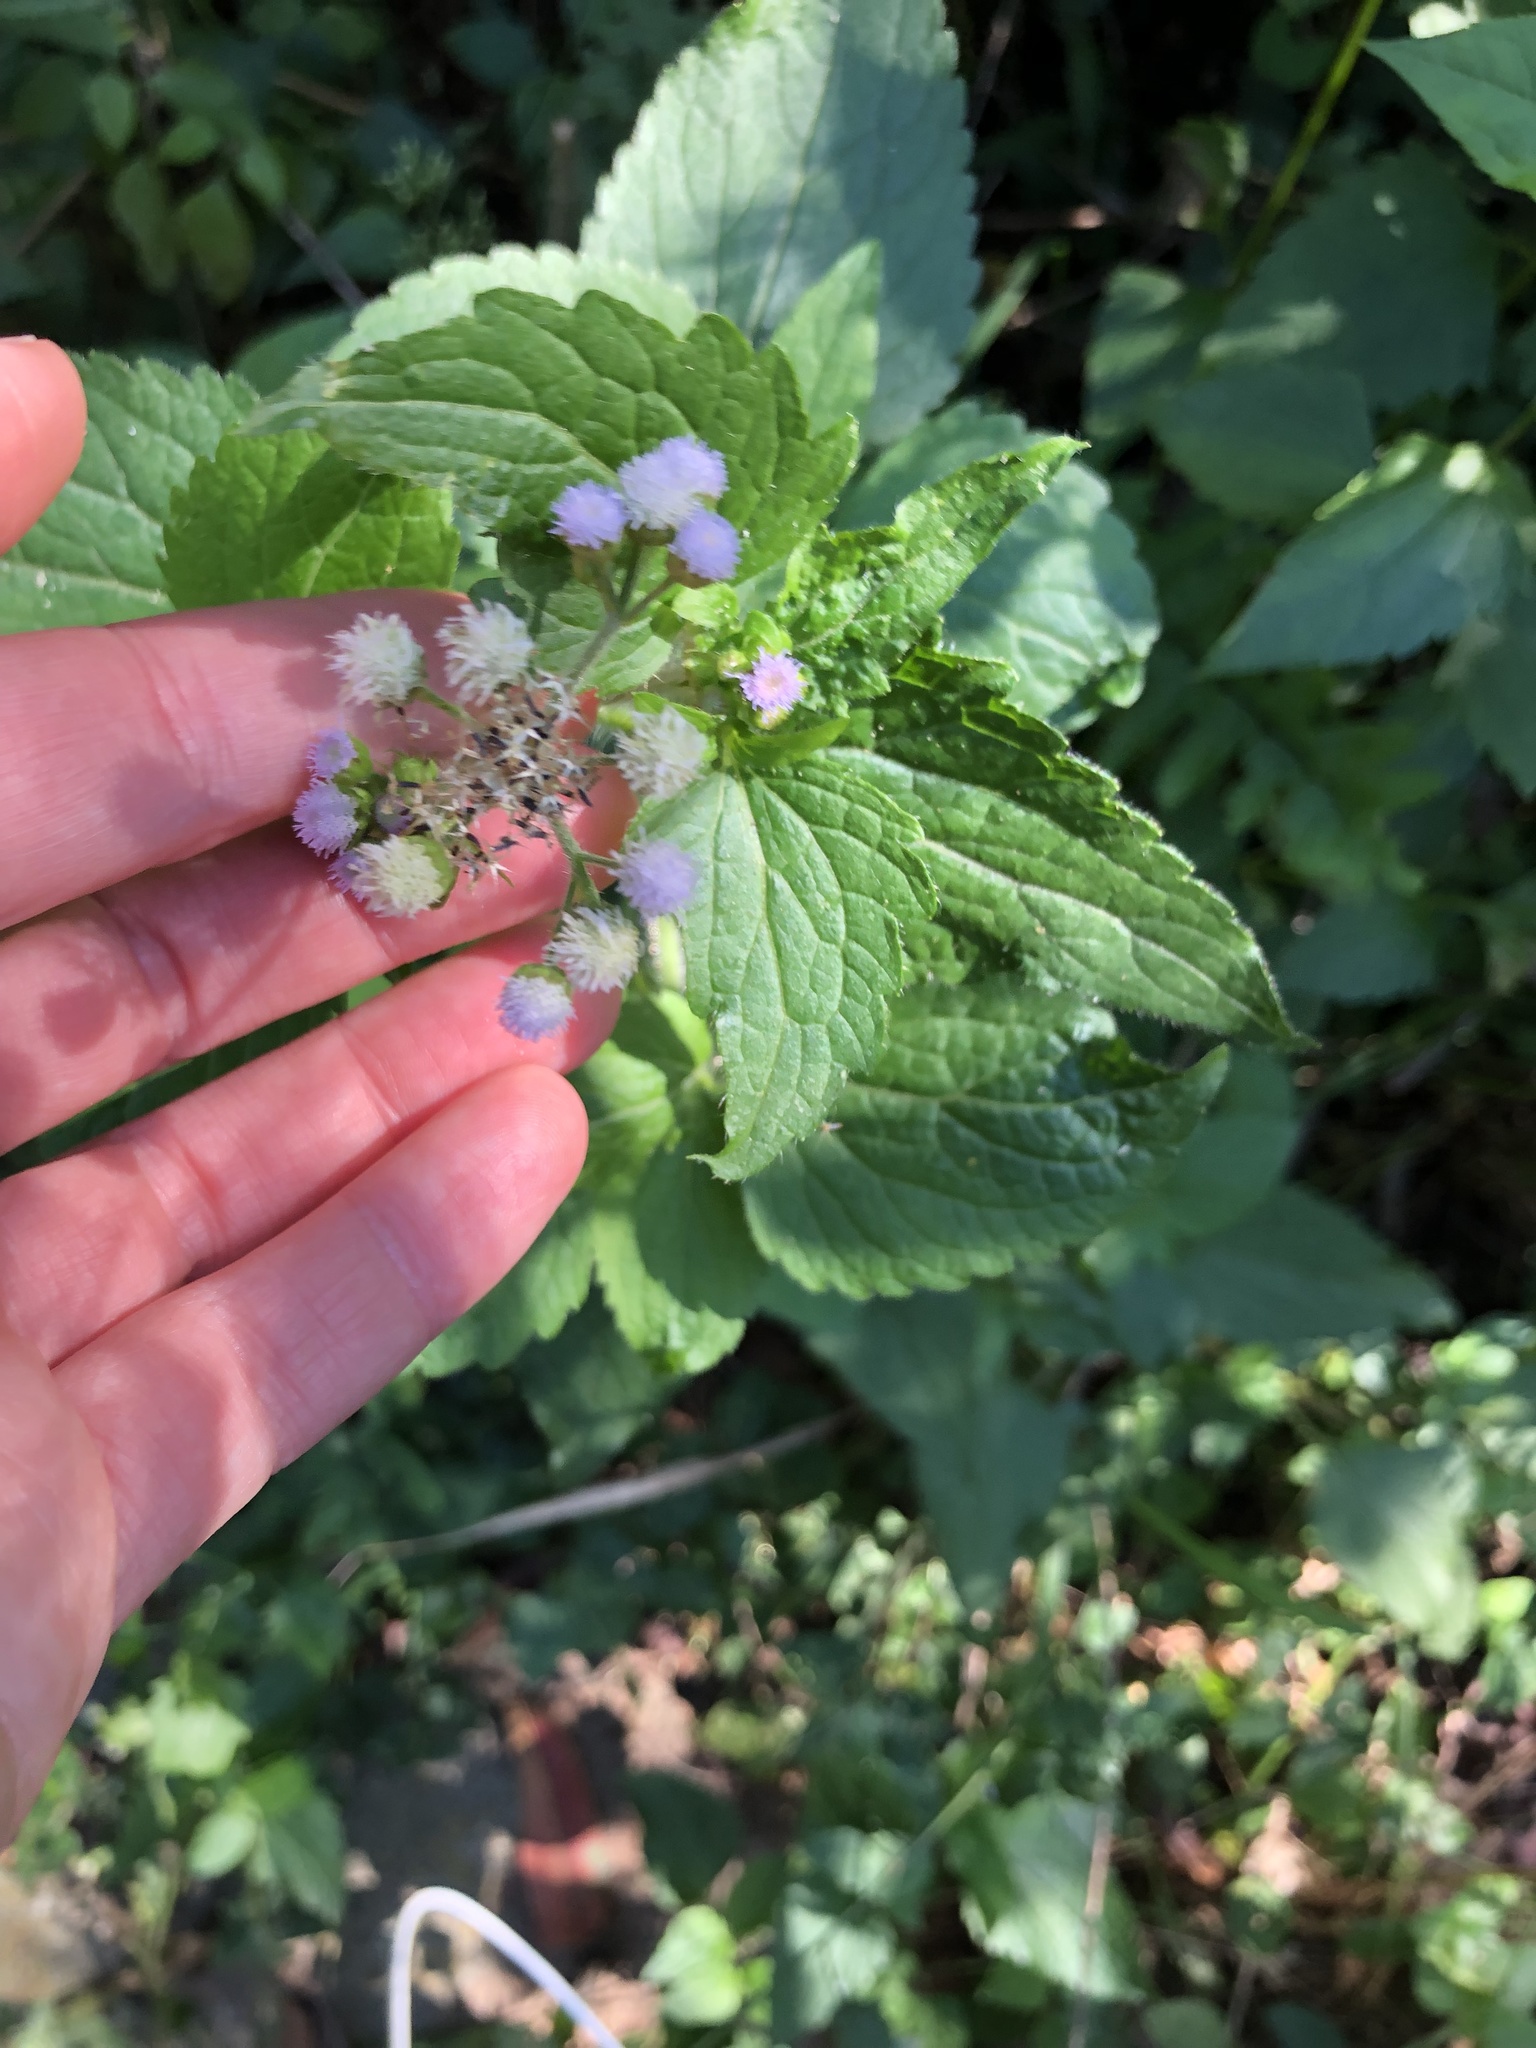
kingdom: Plantae
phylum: Tracheophyta
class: Magnoliopsida
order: Asterales
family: Asteraceae
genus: Ageratum
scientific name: Ageratum houstonianum
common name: Bluemink
